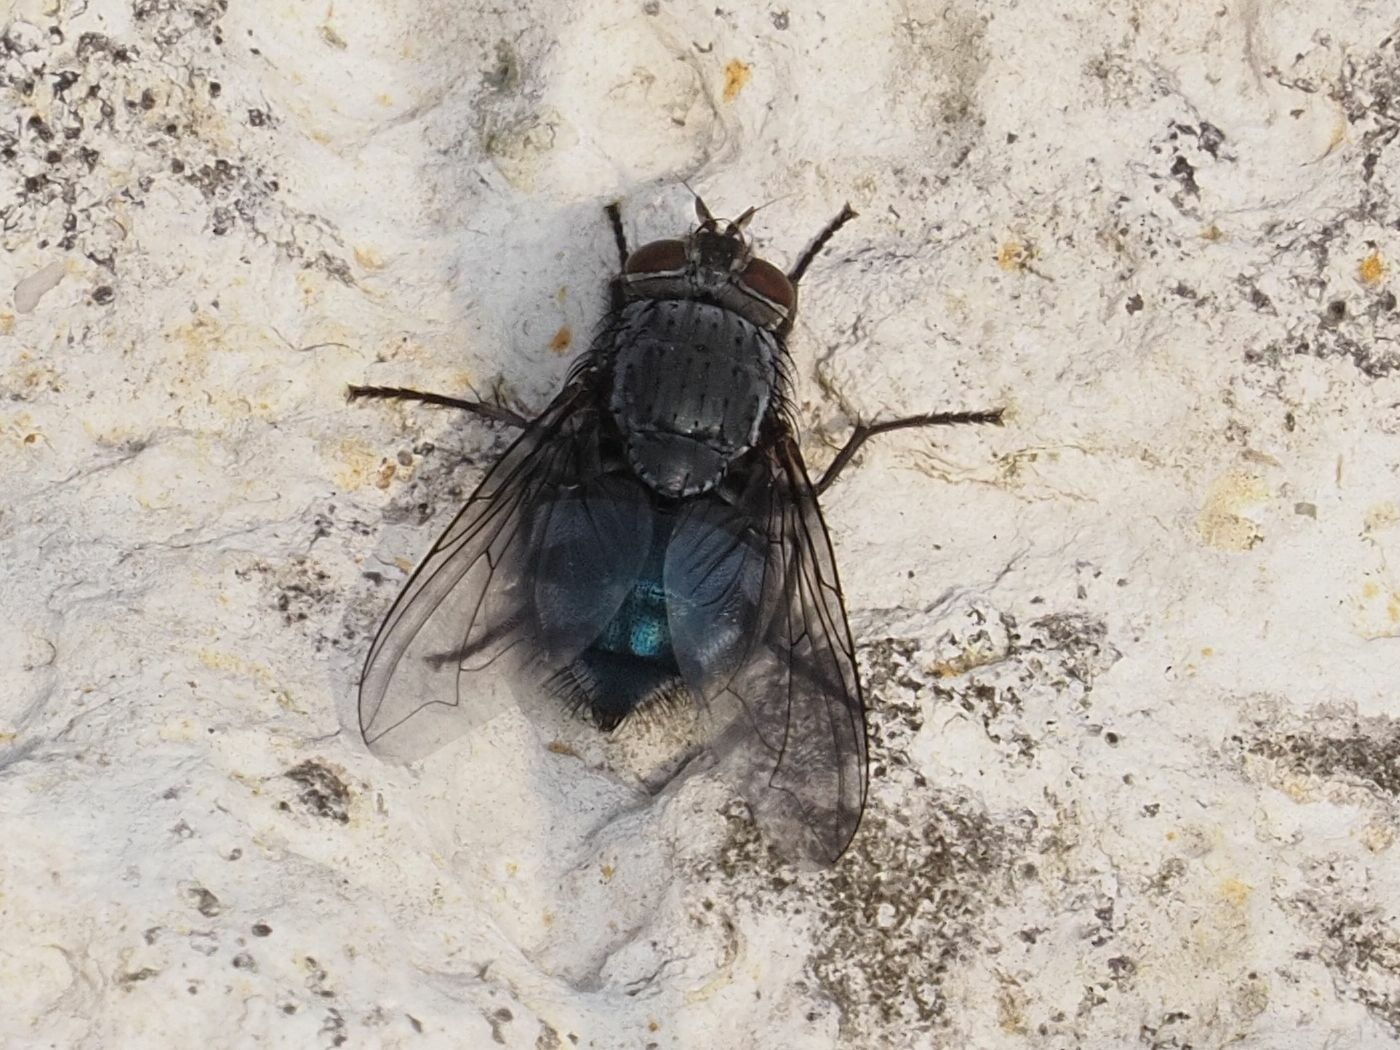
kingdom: Animalia
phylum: Arthropoda
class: Insecta
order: Diptera
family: Calliphoridae
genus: Calliphora
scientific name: Calliphora vicina
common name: Common blow flie
